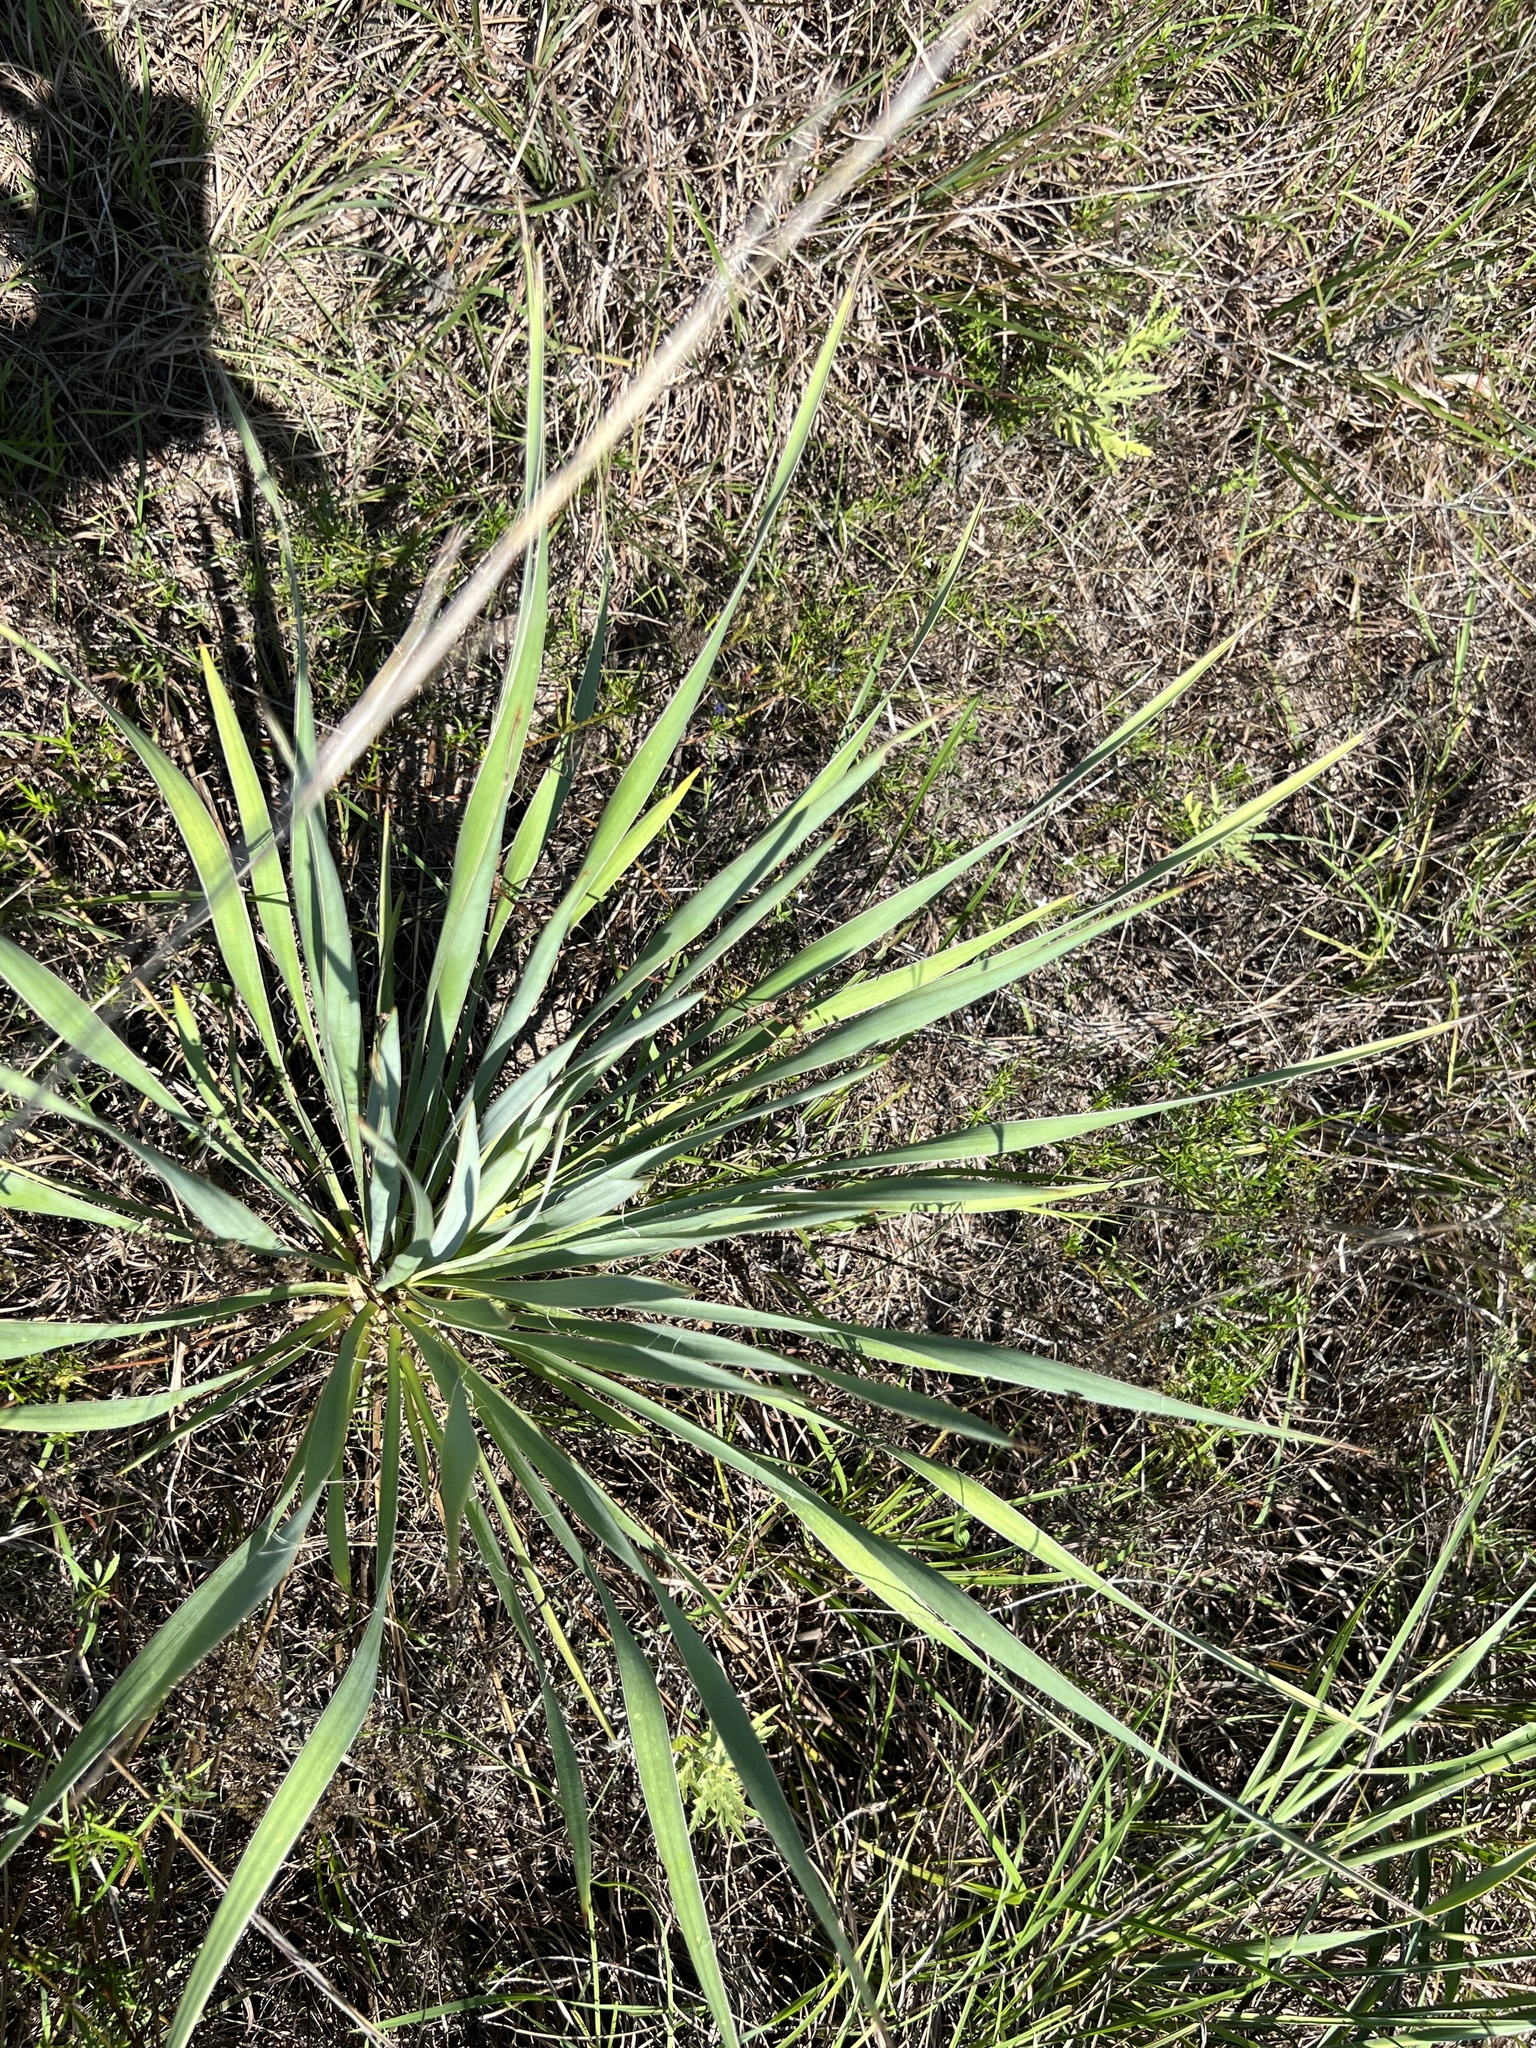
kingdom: Plantae
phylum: Tracheophyta
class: Liliopsida
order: Asparagales
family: Asparagaceae
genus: Yucca
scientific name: Yucca arkansana
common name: Arkansas yucca
